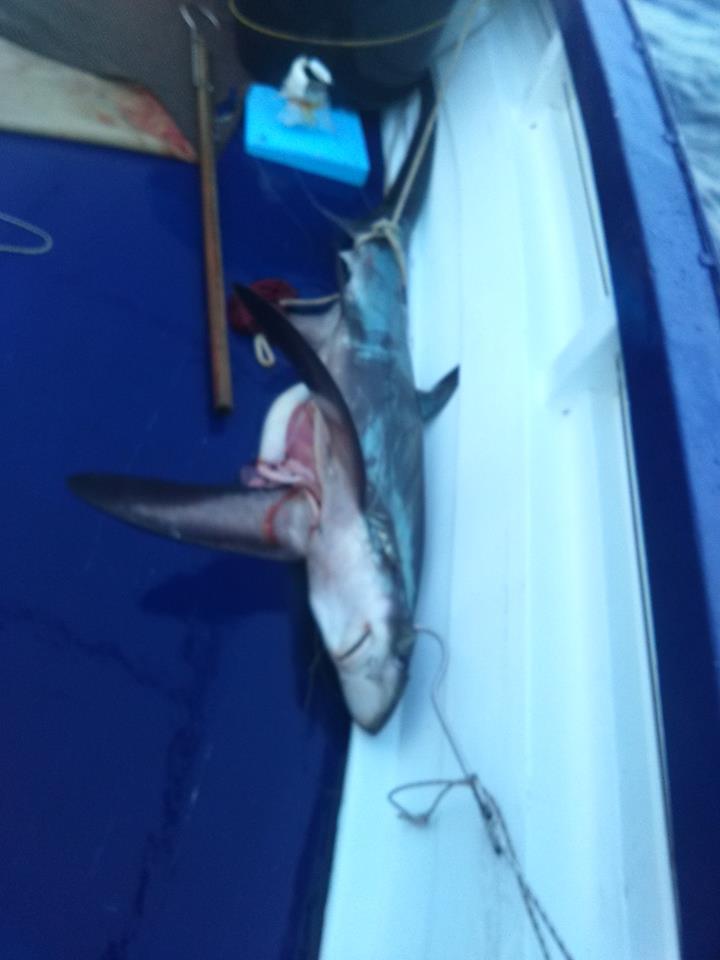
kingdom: Animalia
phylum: Chordata
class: Elasmobranchii
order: Lamniformes
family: Alopiidae
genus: Alopias
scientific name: Alopias superciliosus
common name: Bigeye thresher
